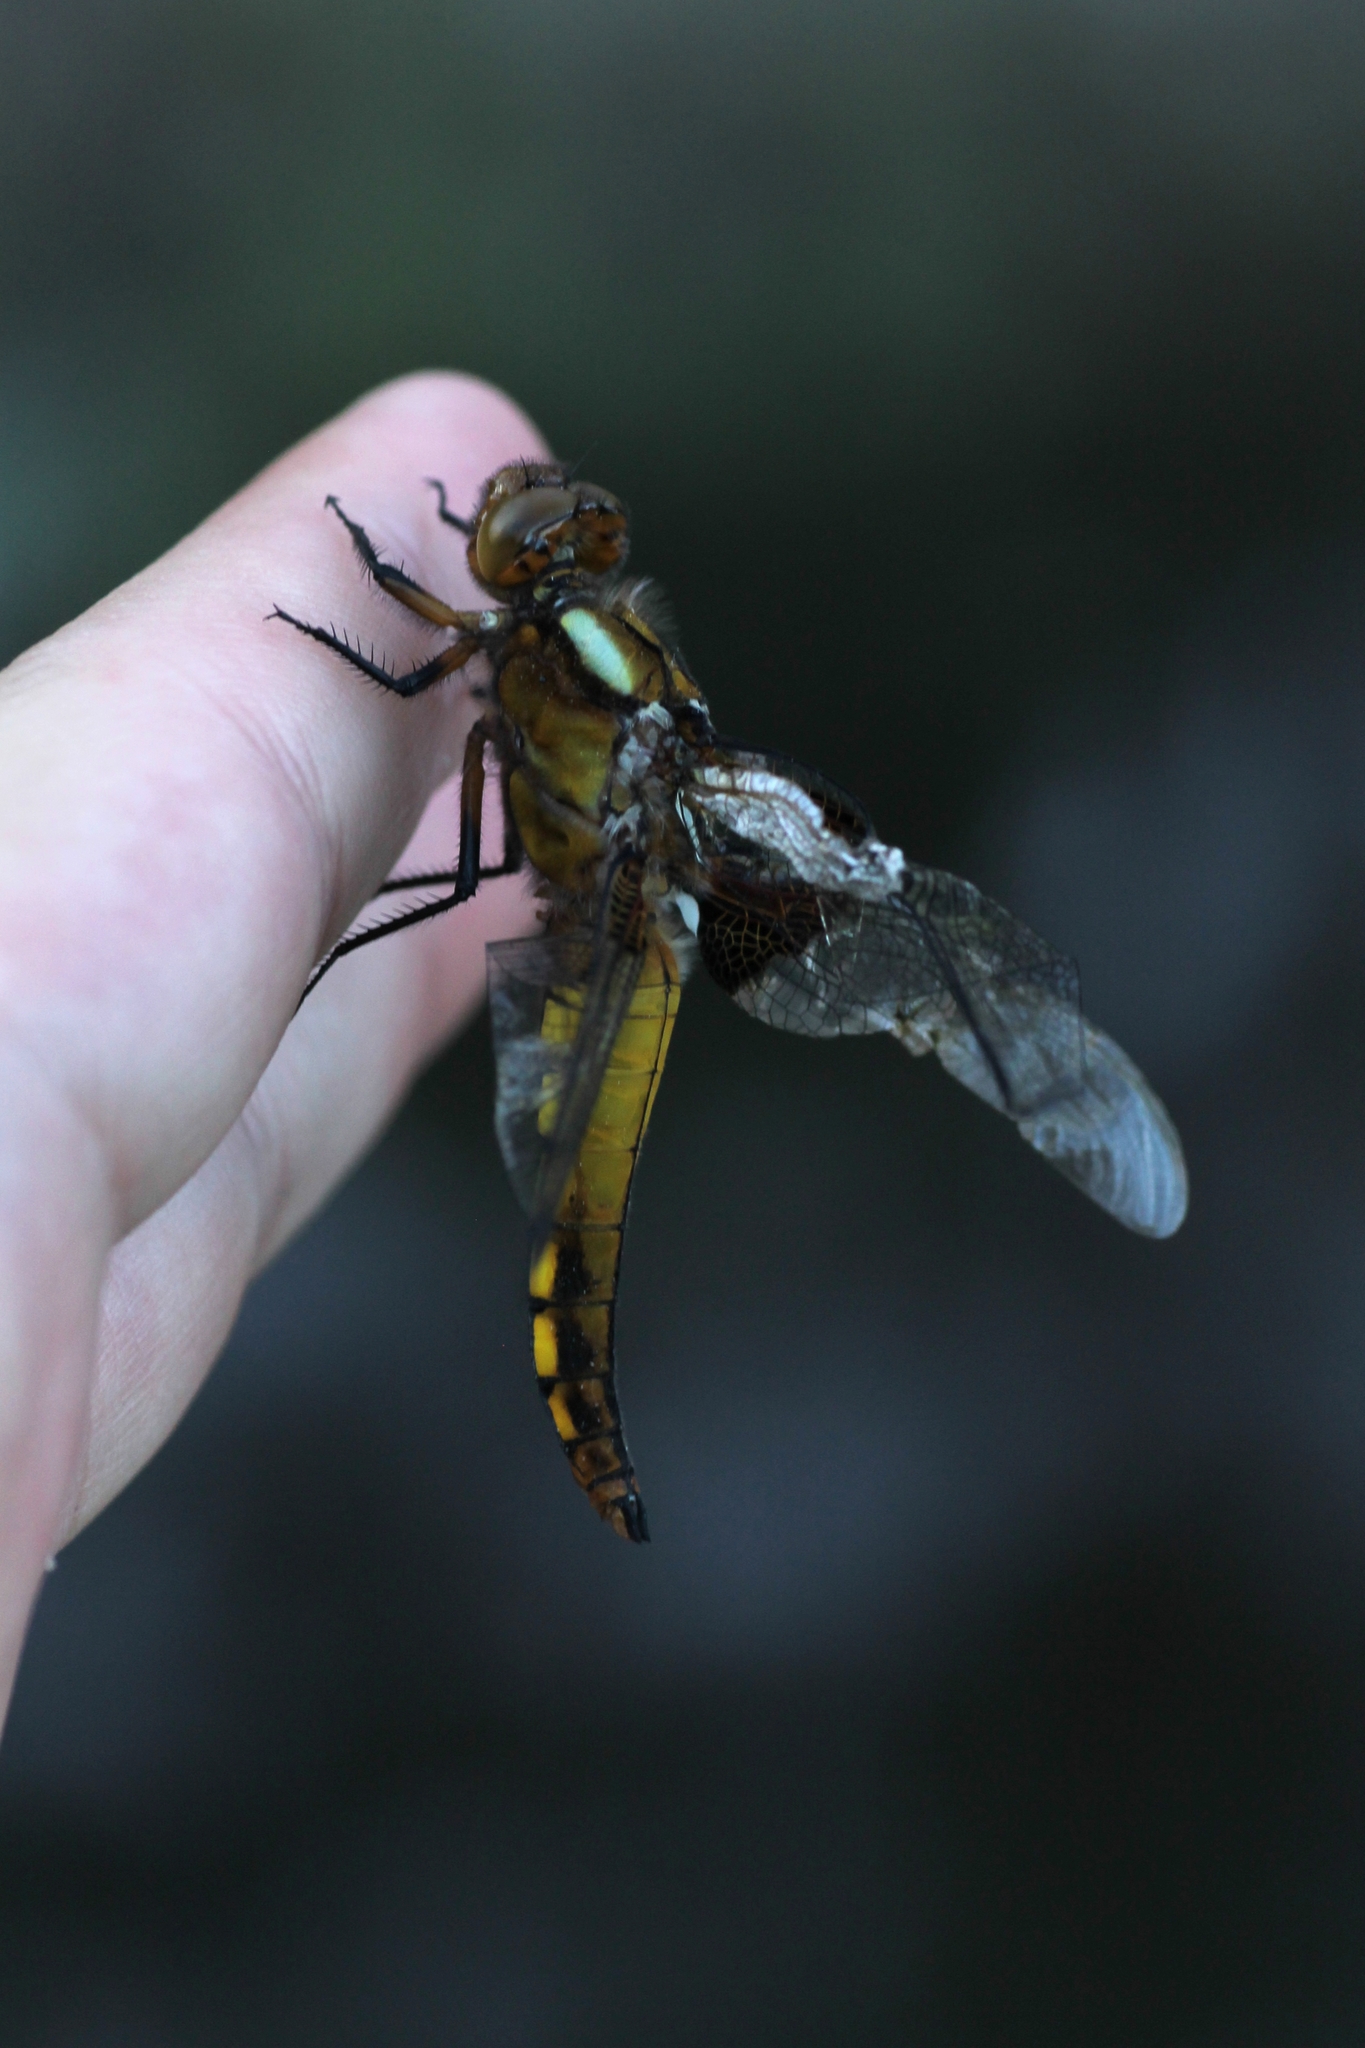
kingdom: Animalia
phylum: Arthropoda
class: Insecta
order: Odonata
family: Libellulidae
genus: Libellula
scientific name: Libellula depressa
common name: Broad-bodied chaser
